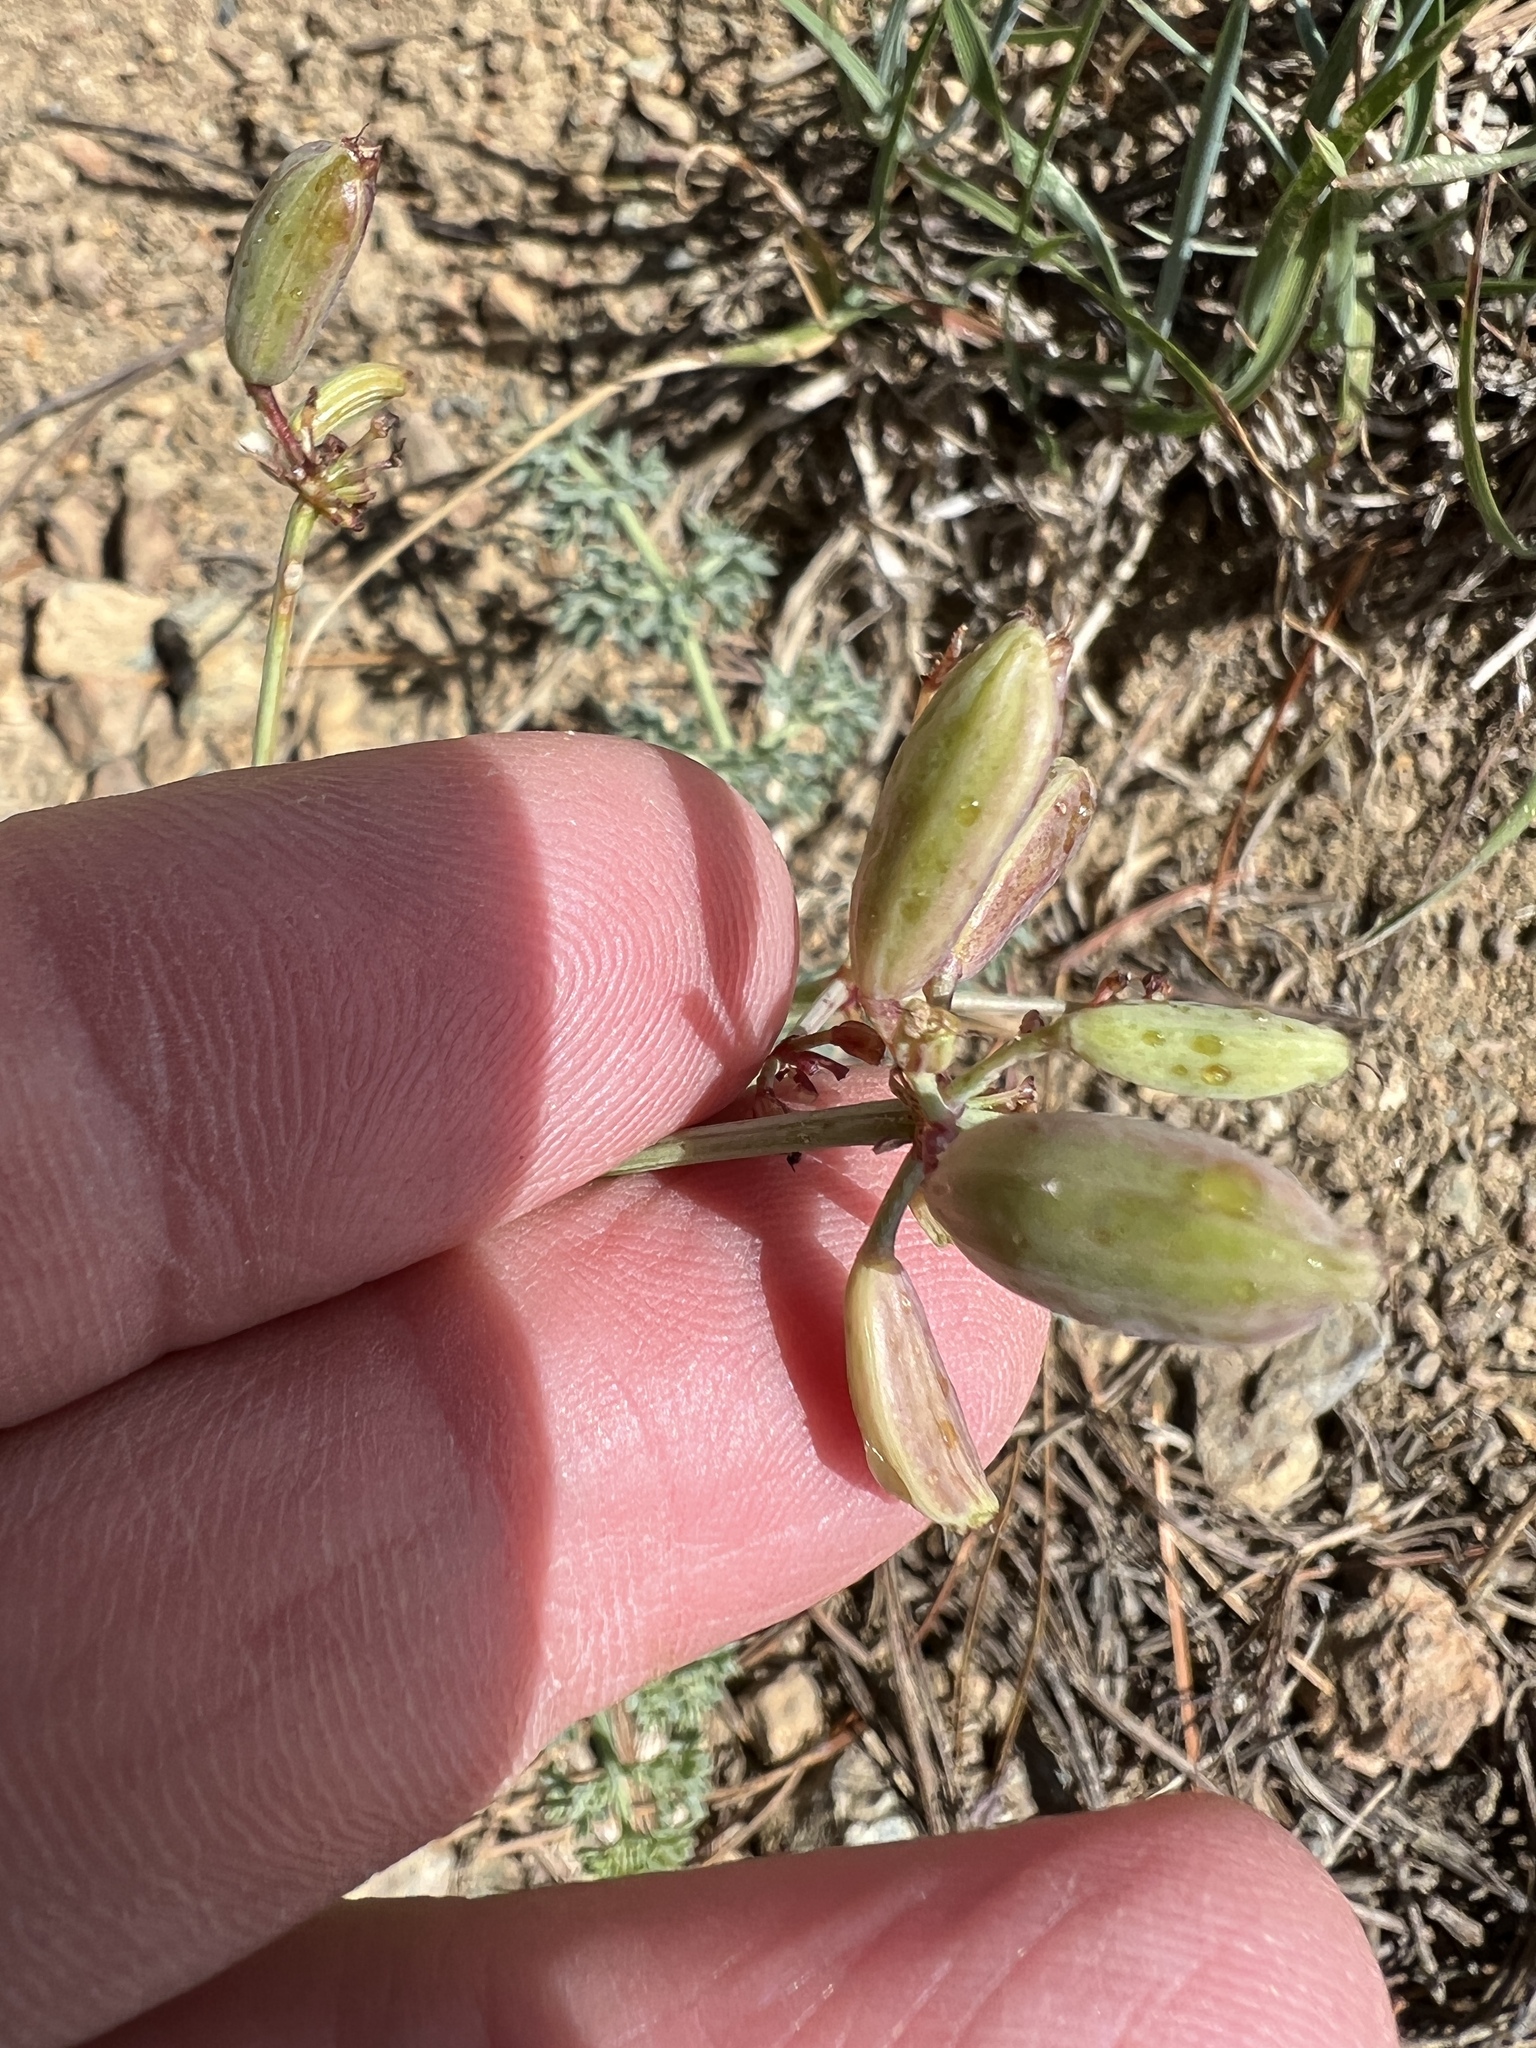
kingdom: Plantae
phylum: Tracheophyta
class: Magnoliopsida
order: Apiales
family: Apiaceae
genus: Lomatium
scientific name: Lomatium cuspidatum
